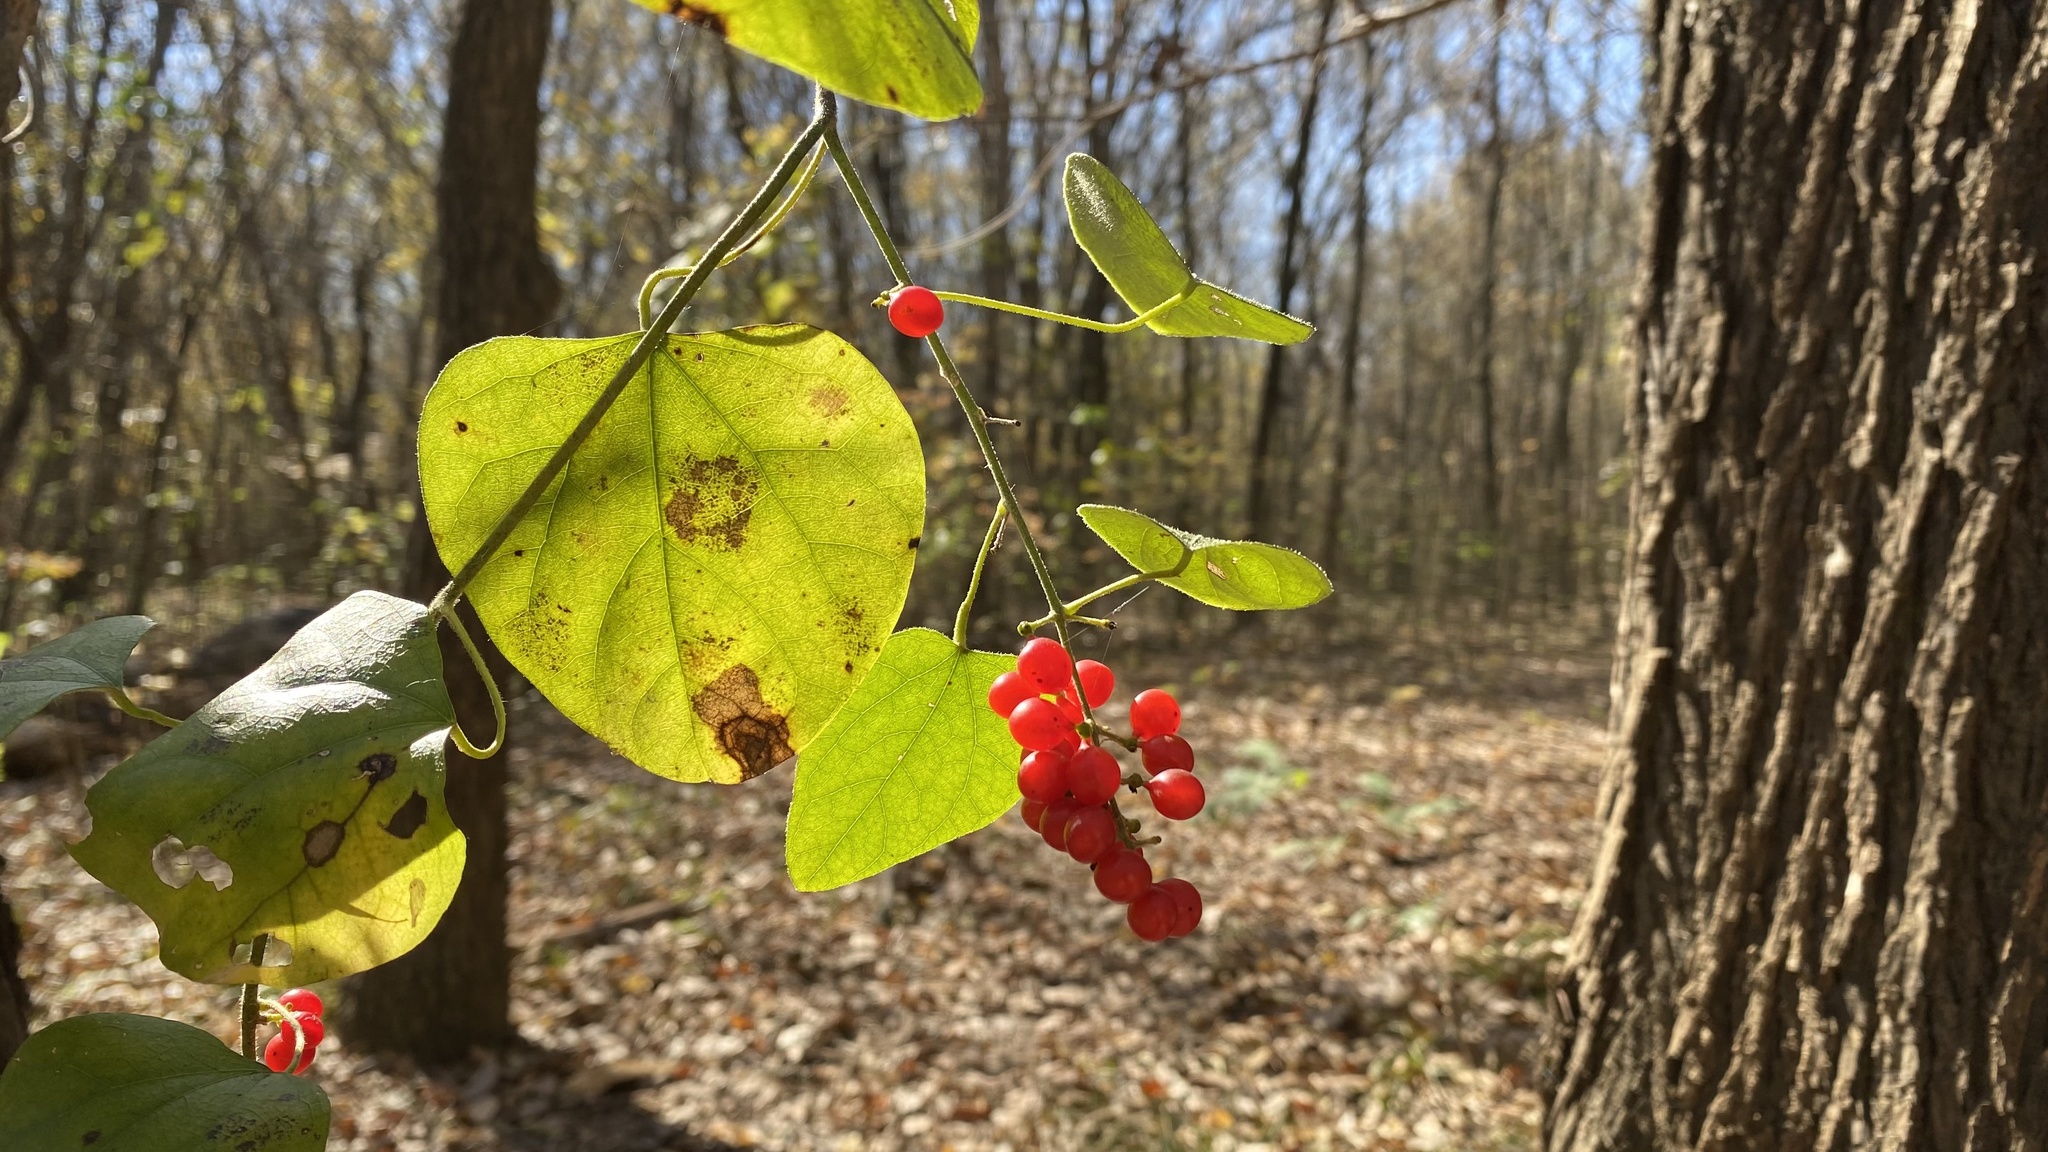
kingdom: Plantae
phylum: Tracheophyta
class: Magnoliopsida
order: Ranunculales
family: Menispermaceae
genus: Cocculus
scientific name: Cocculus carolinus
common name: Carolina moonseed
